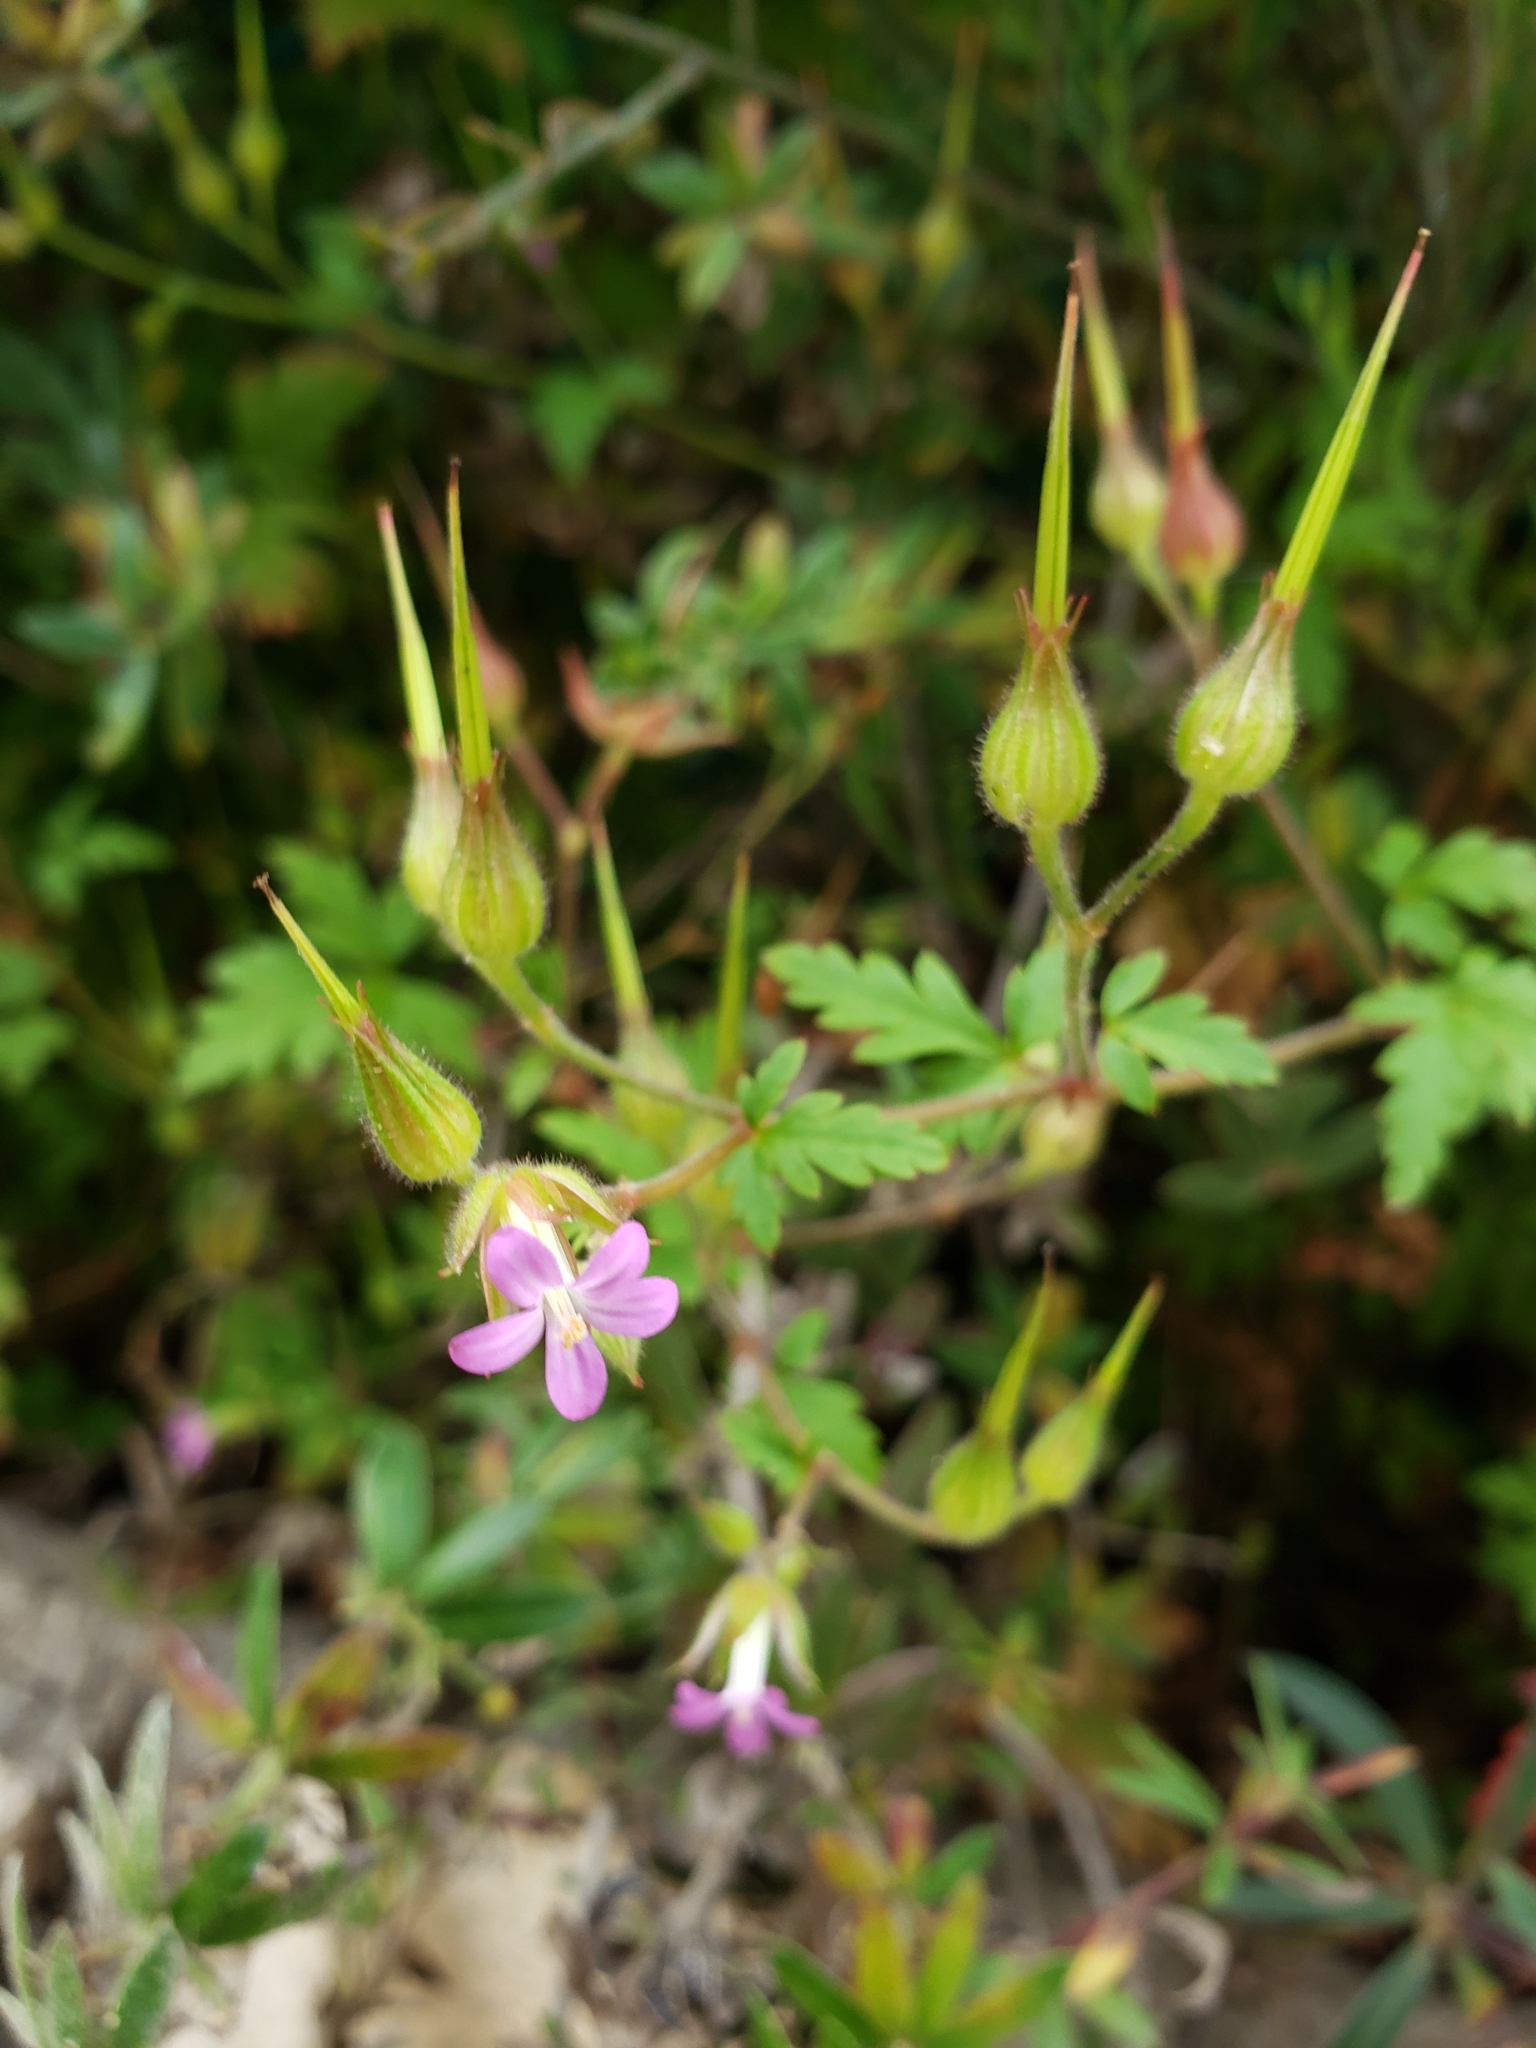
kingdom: Plantae
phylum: Tracheophyta
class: Magnoliopsida
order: Geraniales
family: Geraniaceae
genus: Geranium
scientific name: Geranium robertianum
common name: Herb-robert
